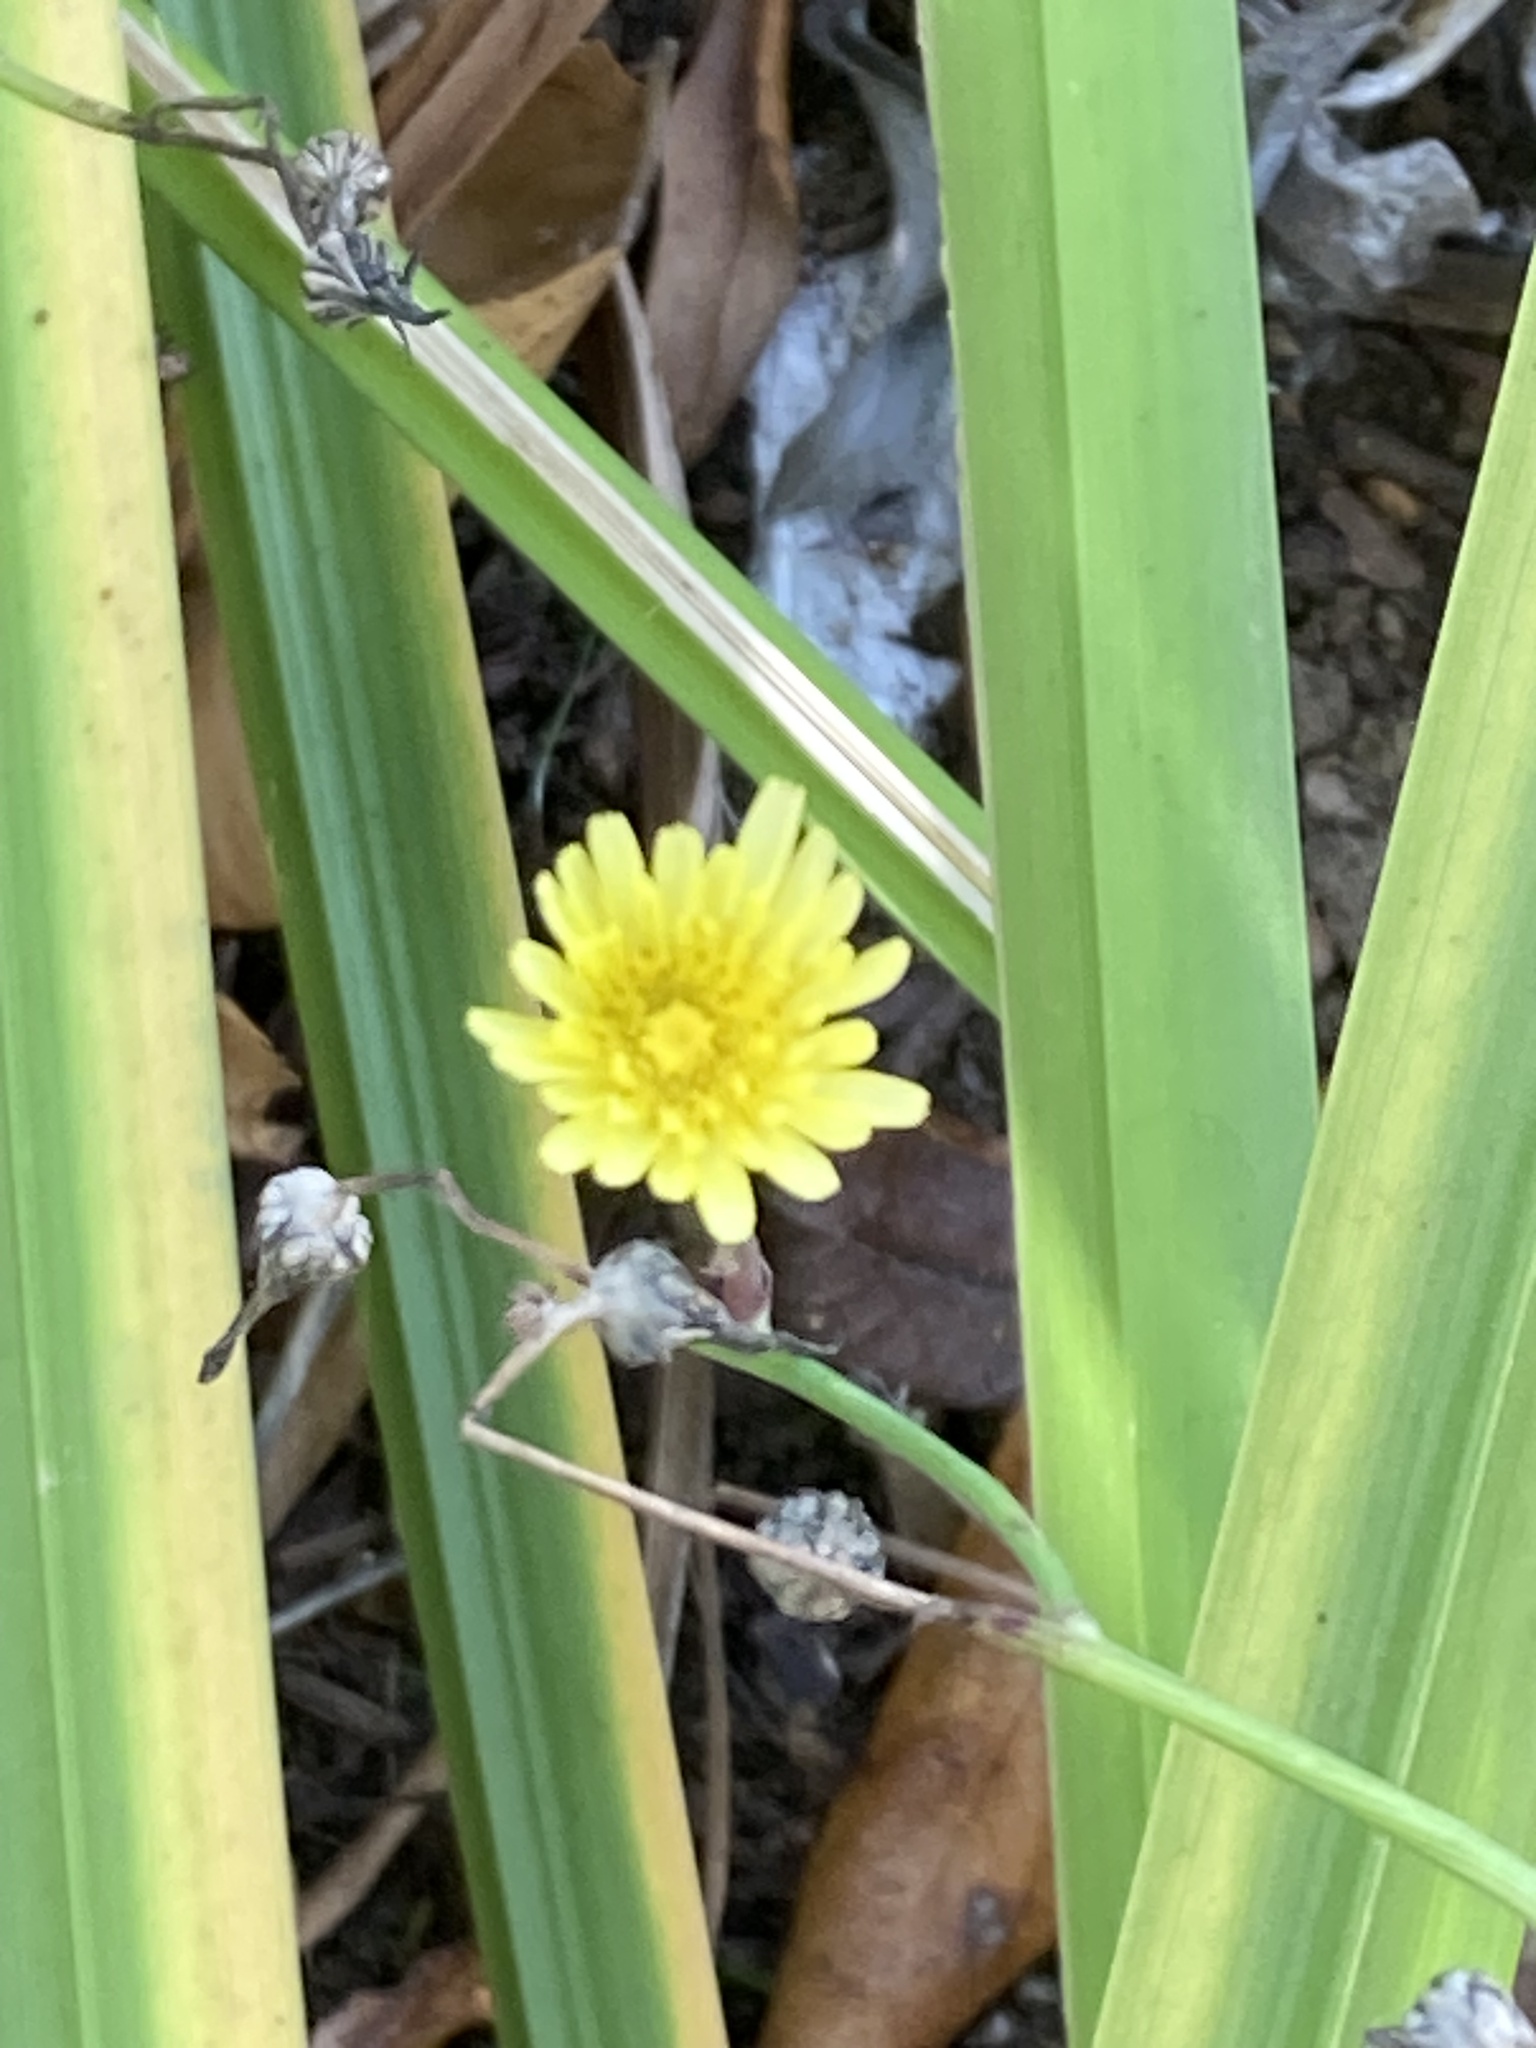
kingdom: Plantae
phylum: Tracheophyta
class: Magnoliopsida
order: Asterales
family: Asteraceae
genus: Sonchus
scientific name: Sonchus oleraceus
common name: Common sowthistle
